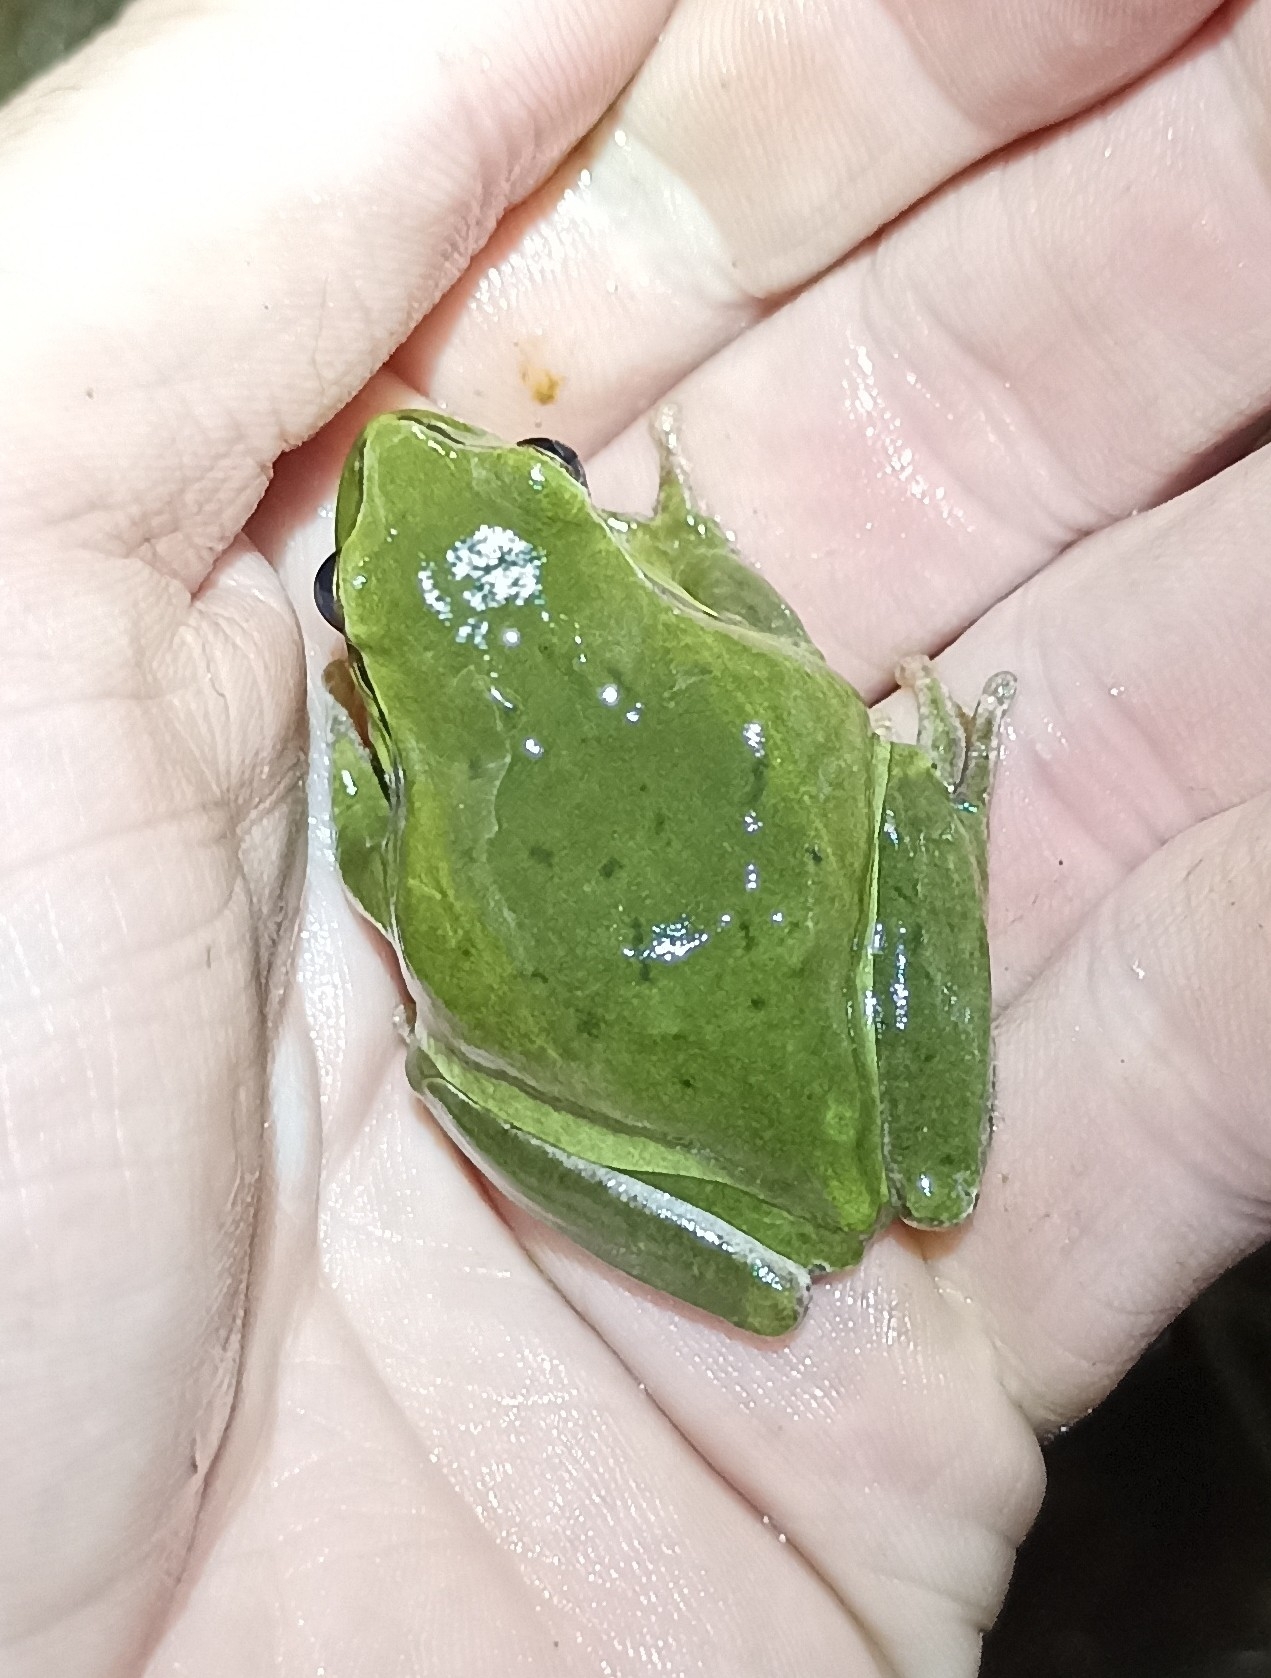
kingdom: Animalia
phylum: Chordata
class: Amphibia
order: Anura
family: Hylidae
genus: Hyla
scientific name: Hyla meridionalis
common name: Stripeless tree frog
